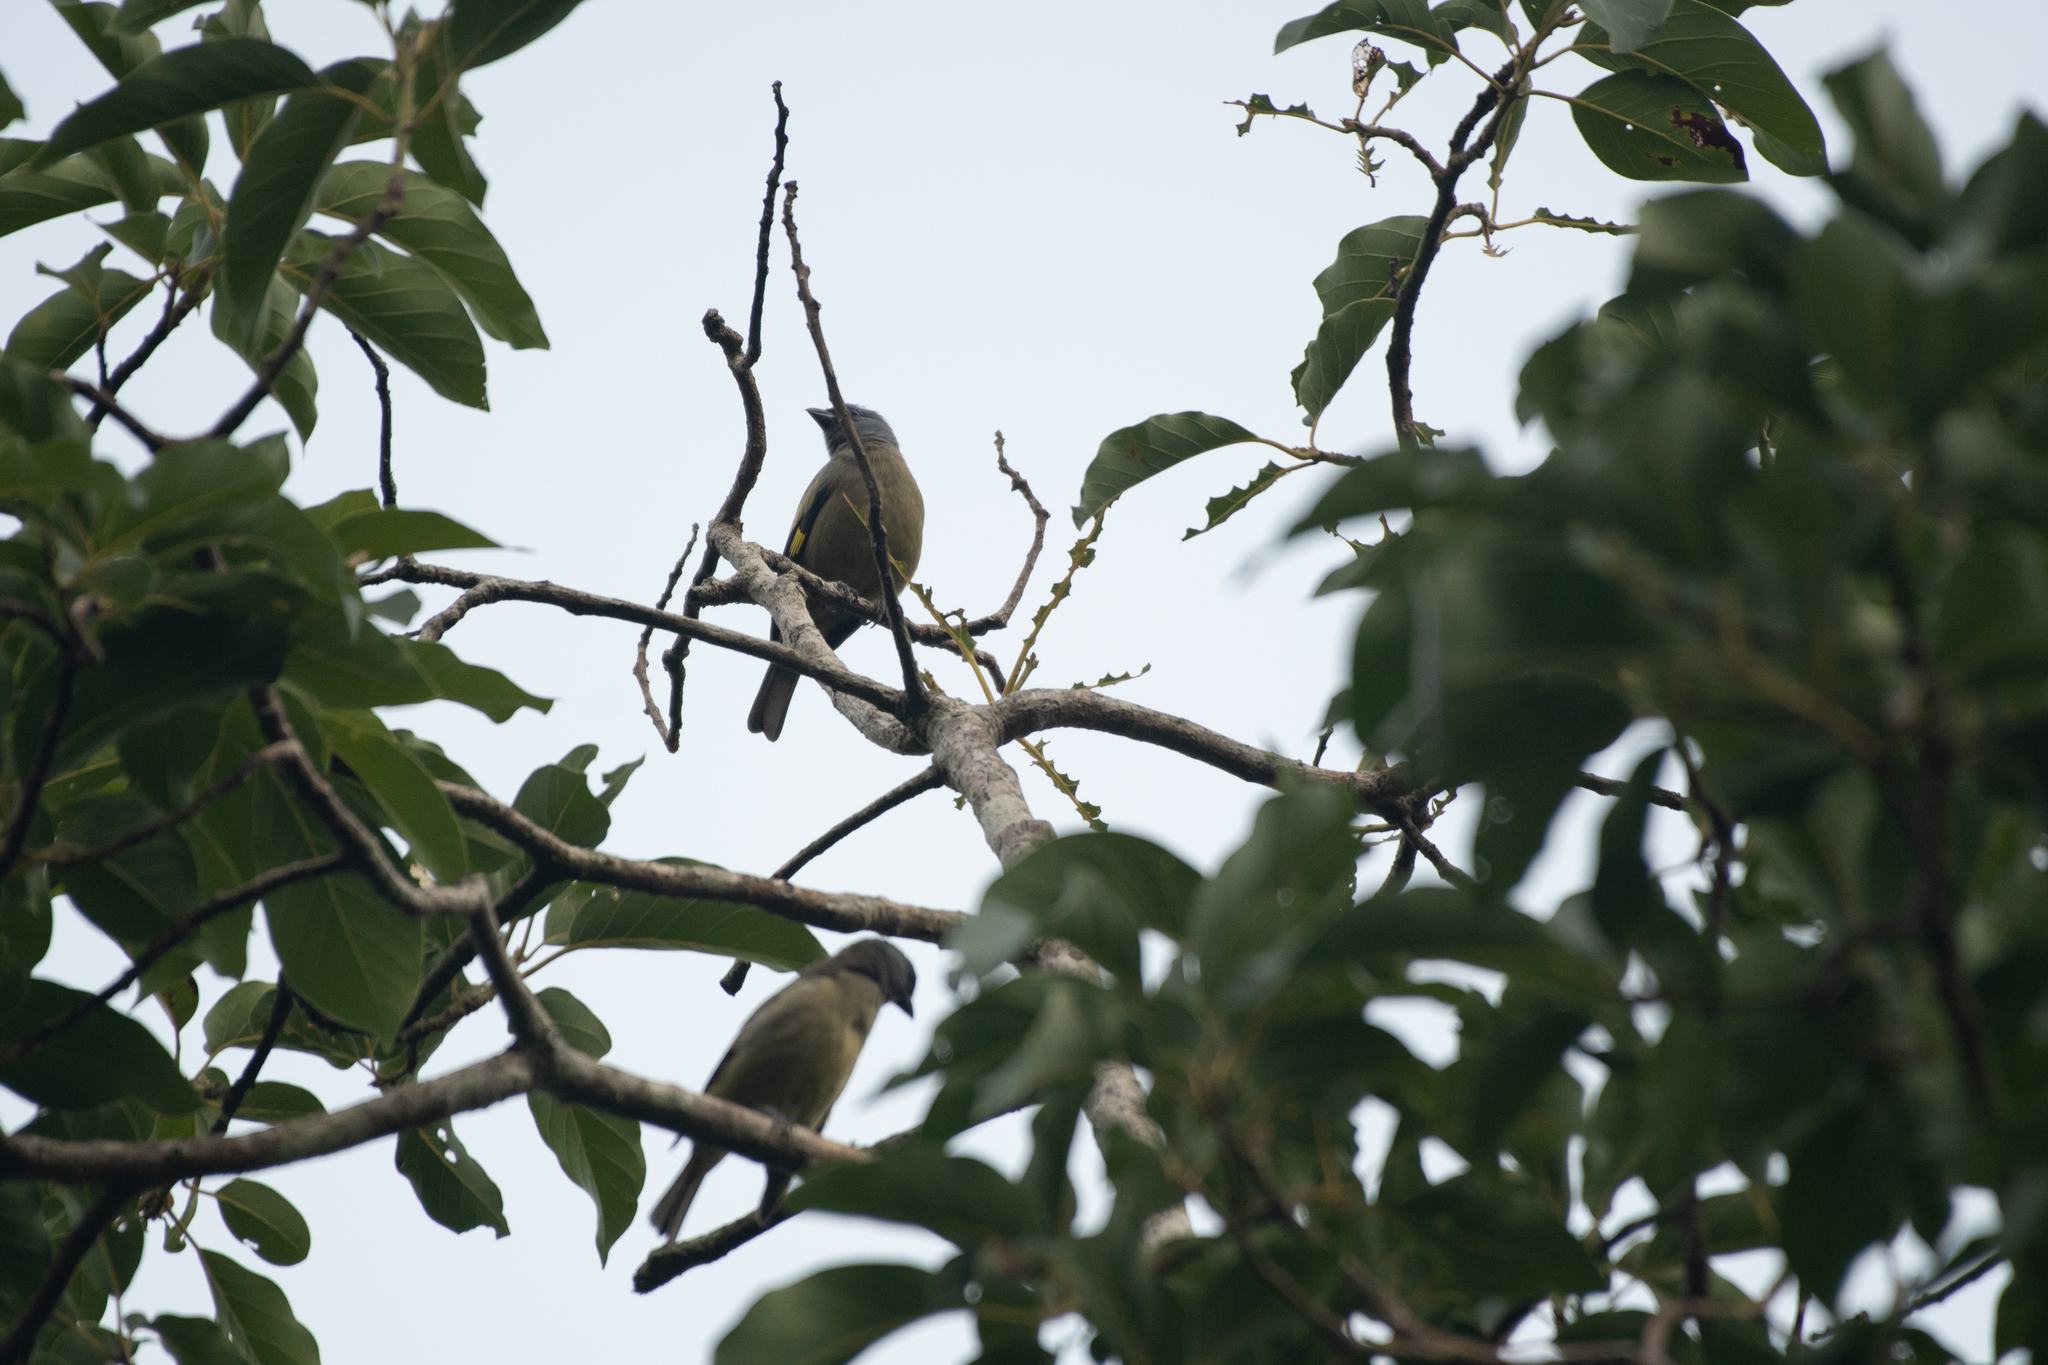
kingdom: Animalia
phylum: Chordata
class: Aves
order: Passeriformes
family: Thraupidae
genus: Thraupis
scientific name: Thraupis abbas
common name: Yellow-winged tanager
